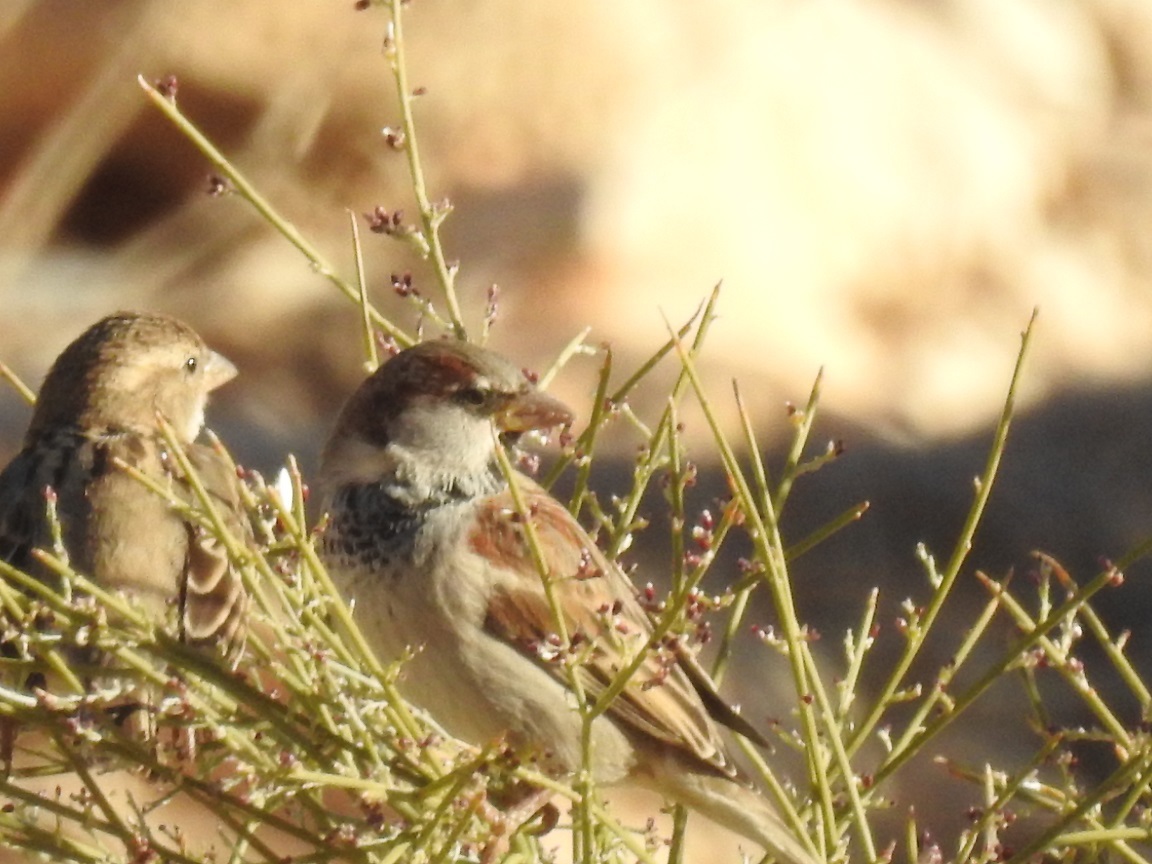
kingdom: Animalia
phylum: Chordata
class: Aves
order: Passeriformes
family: Passeridae
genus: Passer
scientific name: Passer domesticus
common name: House sparrow
